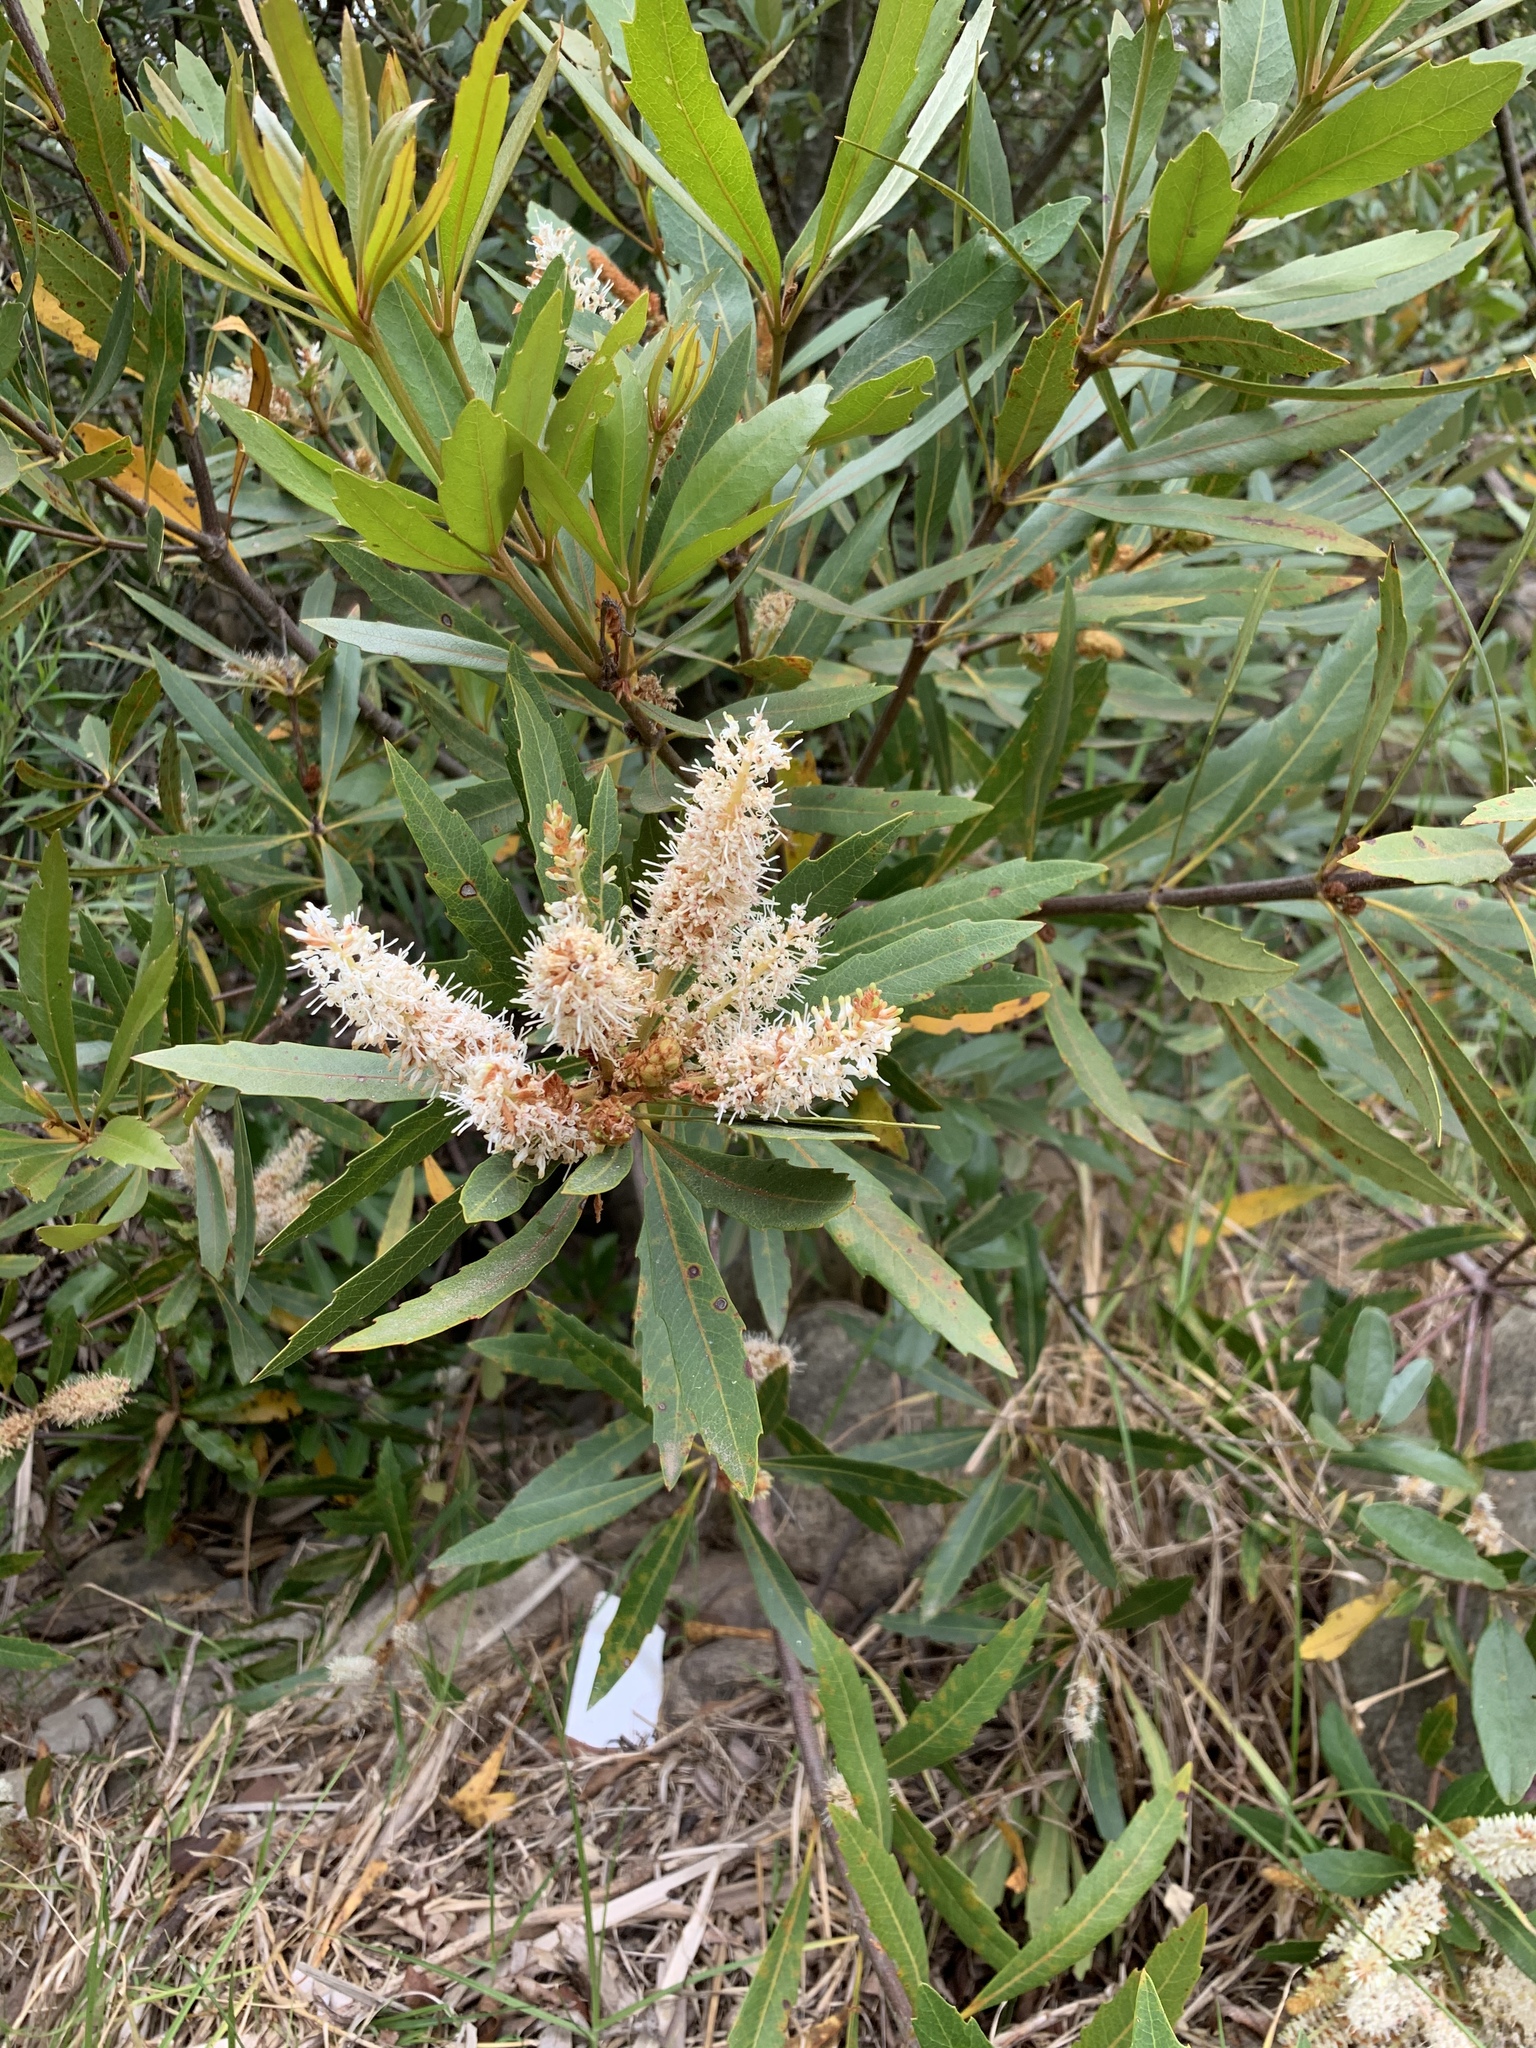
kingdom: Plantae
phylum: Tracheophyta
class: Magnoliopsida
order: Proteales
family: Proteaceae
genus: Brabejum
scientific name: Brabejum stellatifolium
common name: Wild almond
